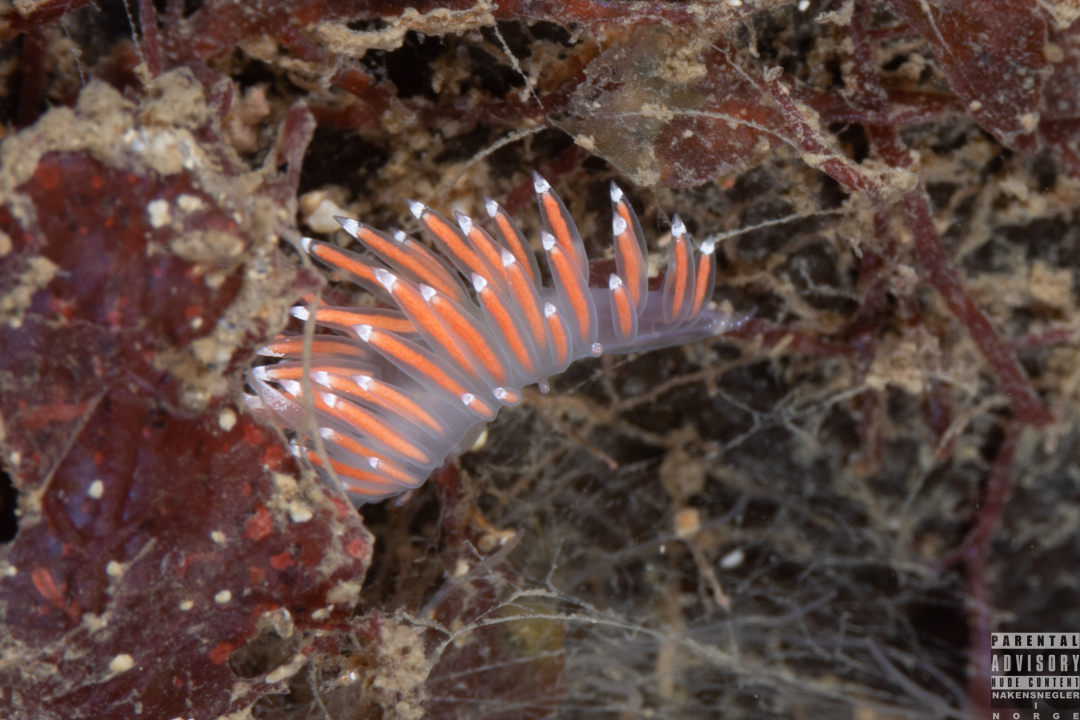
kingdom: Animalia
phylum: Mollusca
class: Gastropoda
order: Nudibranchia
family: Coryphellidae
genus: Coryphella
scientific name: Coryphella gracilis
